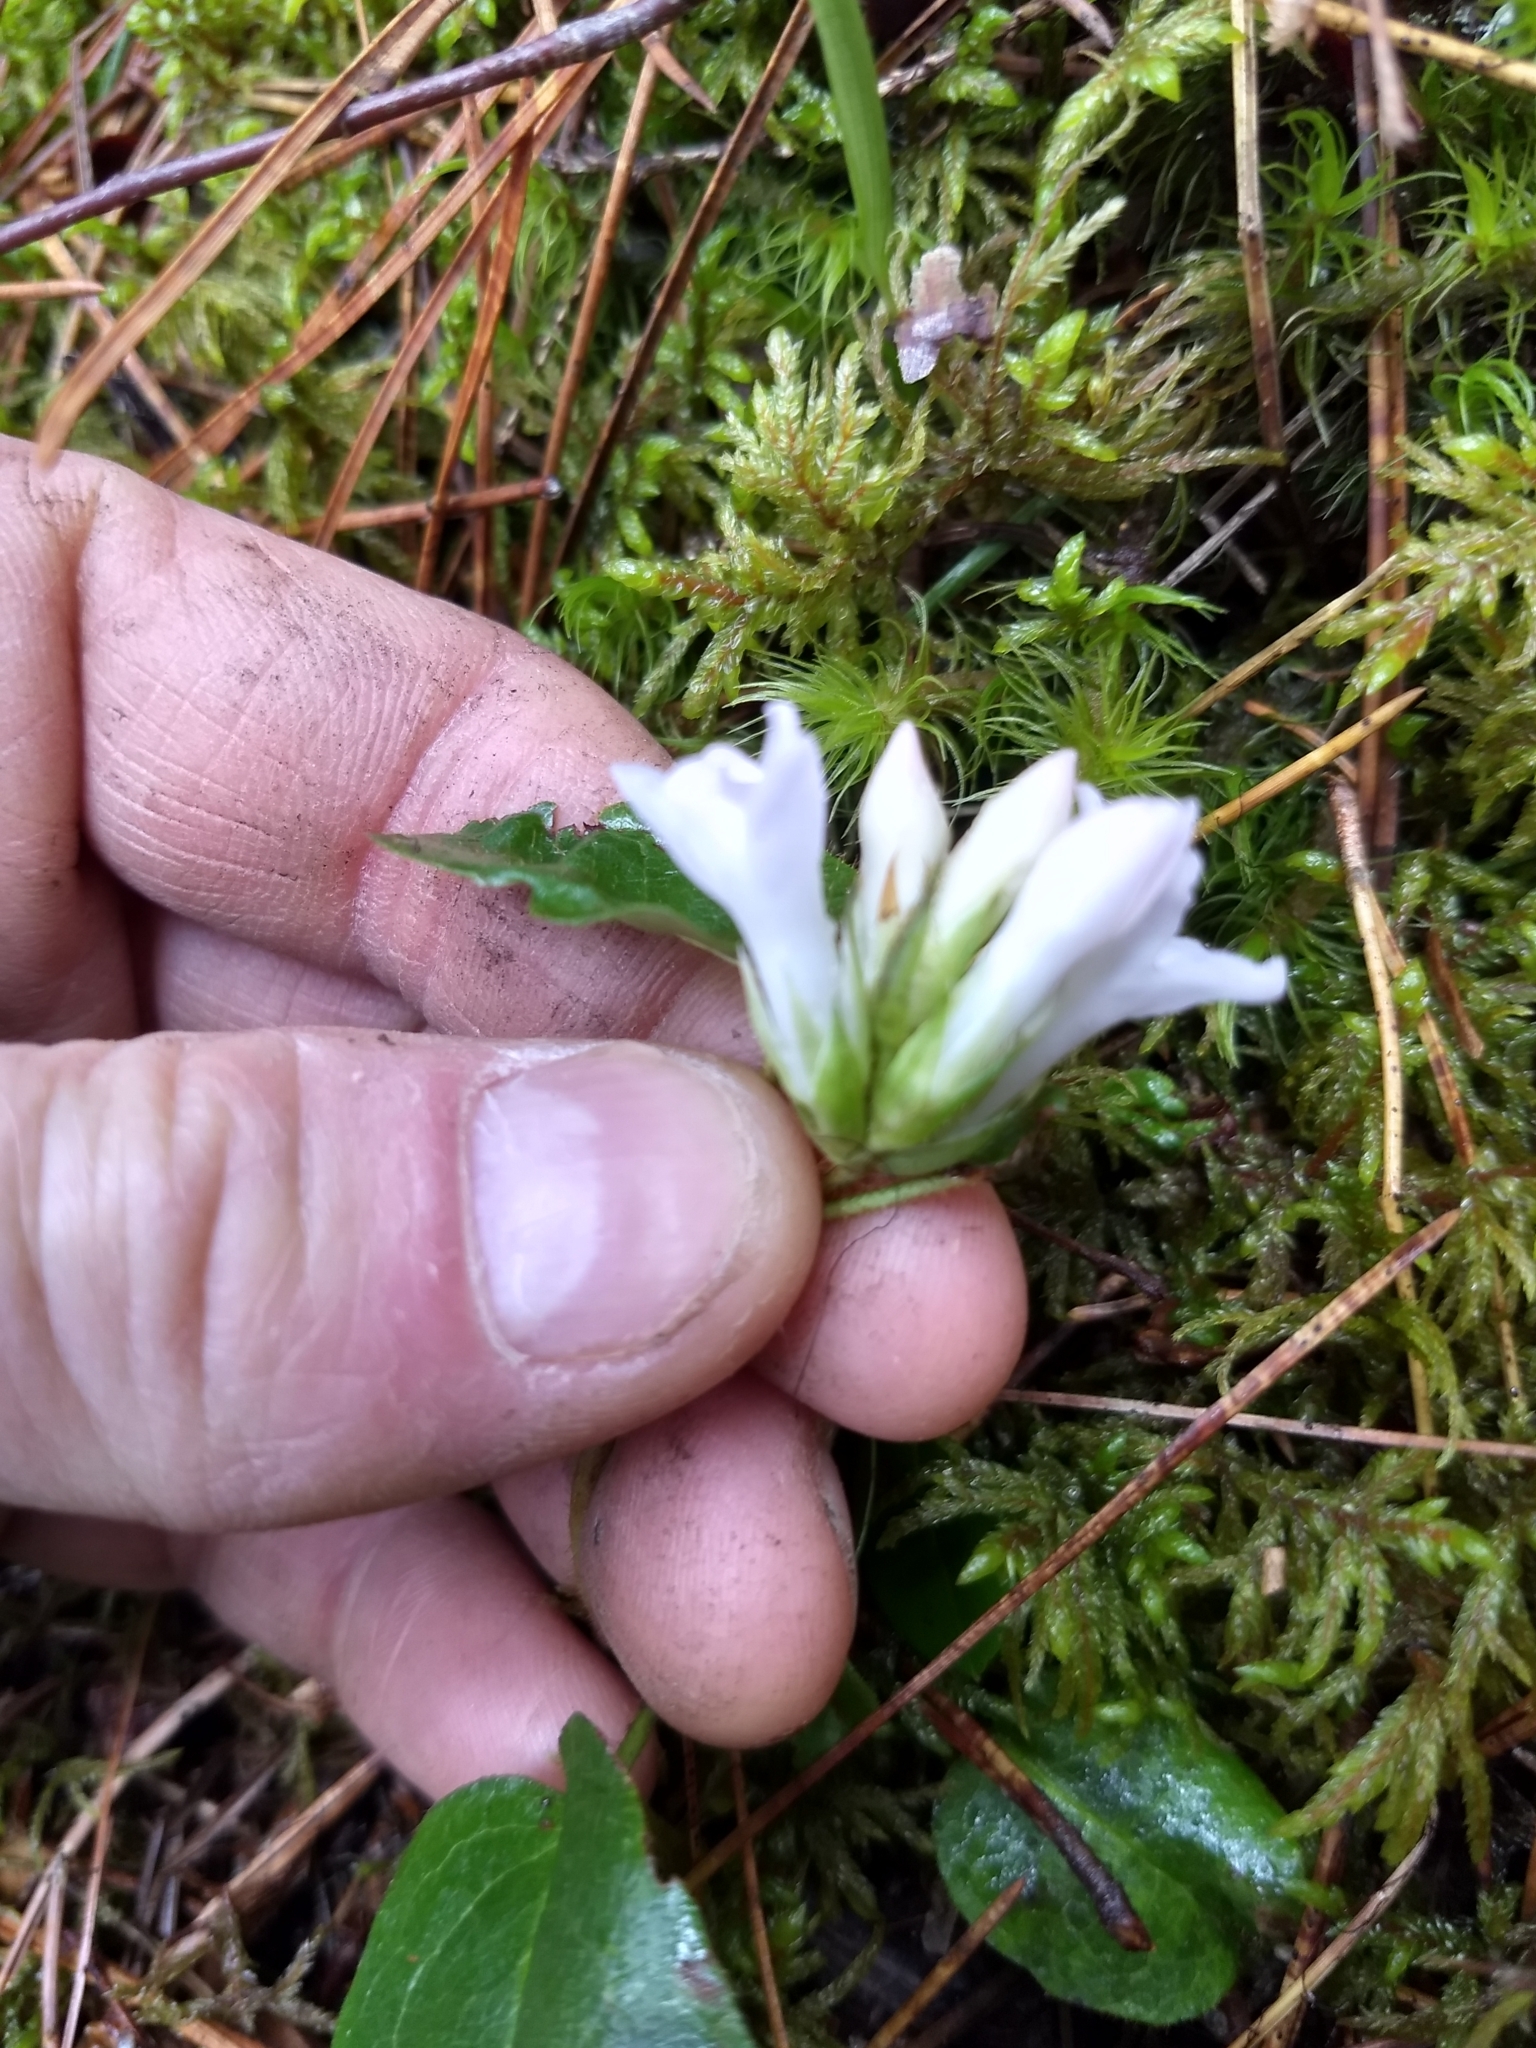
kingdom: Plantae
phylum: Tracheophyta
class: Magnoliopsida
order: Ericales
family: Ericaceae
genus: Epigaea
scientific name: Epigaea repens
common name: Gravelroot
